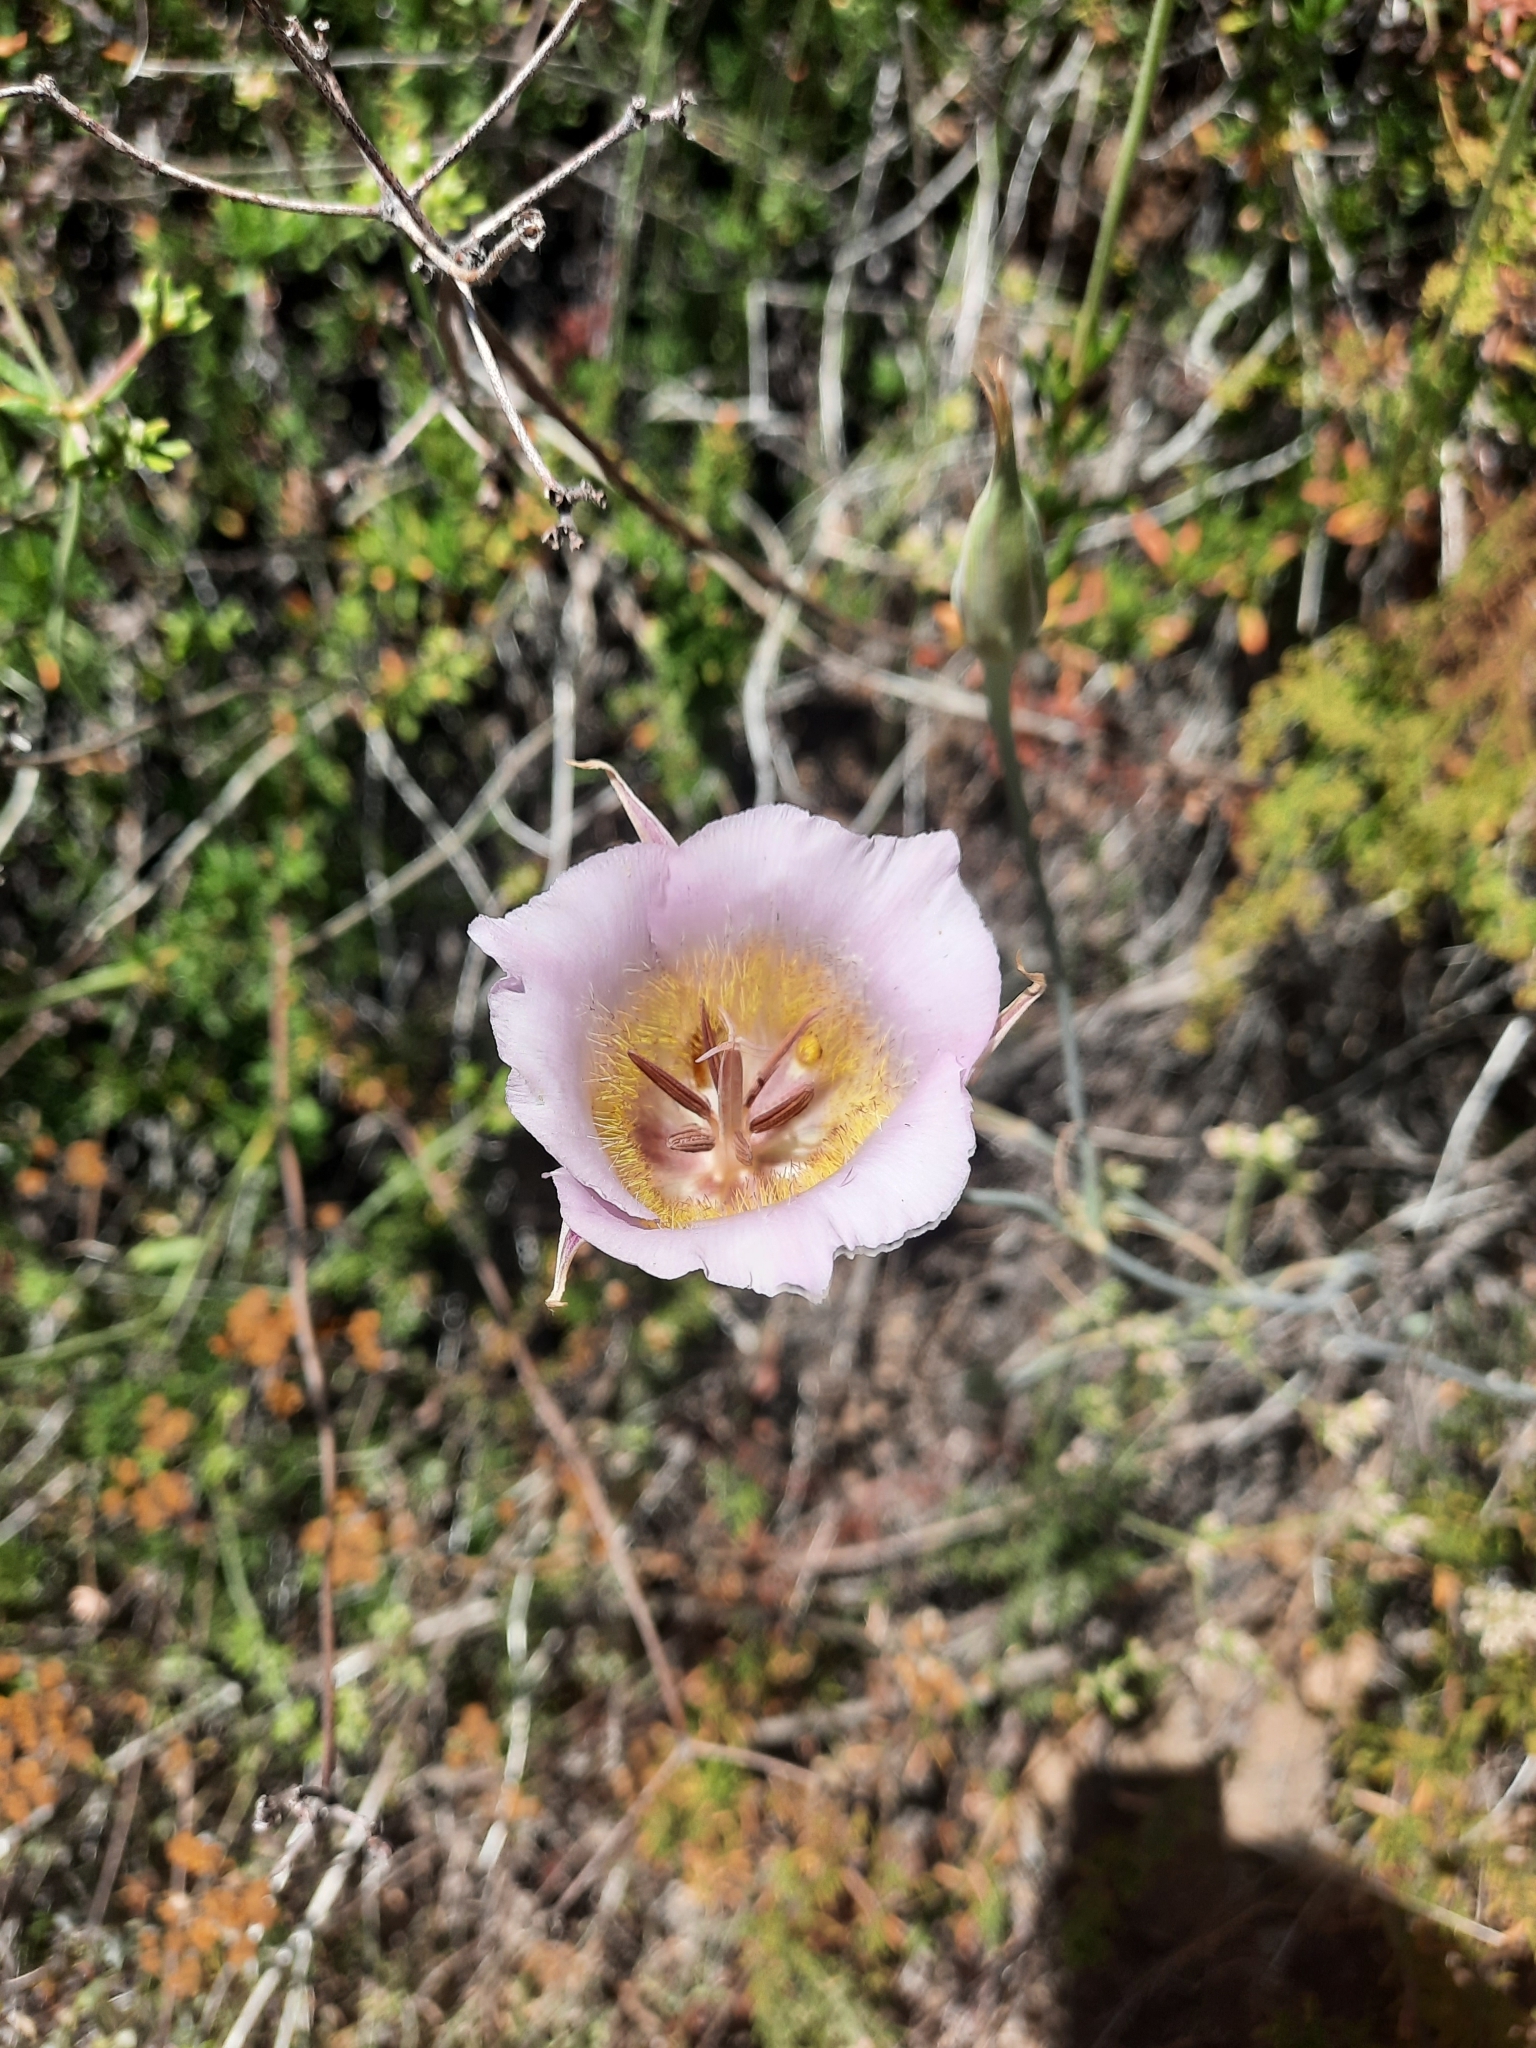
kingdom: Plantae
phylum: Tracheophyta
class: Liliopsida
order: Liliales
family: Liliaceae
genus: Calochortus
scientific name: Calochortus plummerae
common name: Plummer's mariposa-lily
